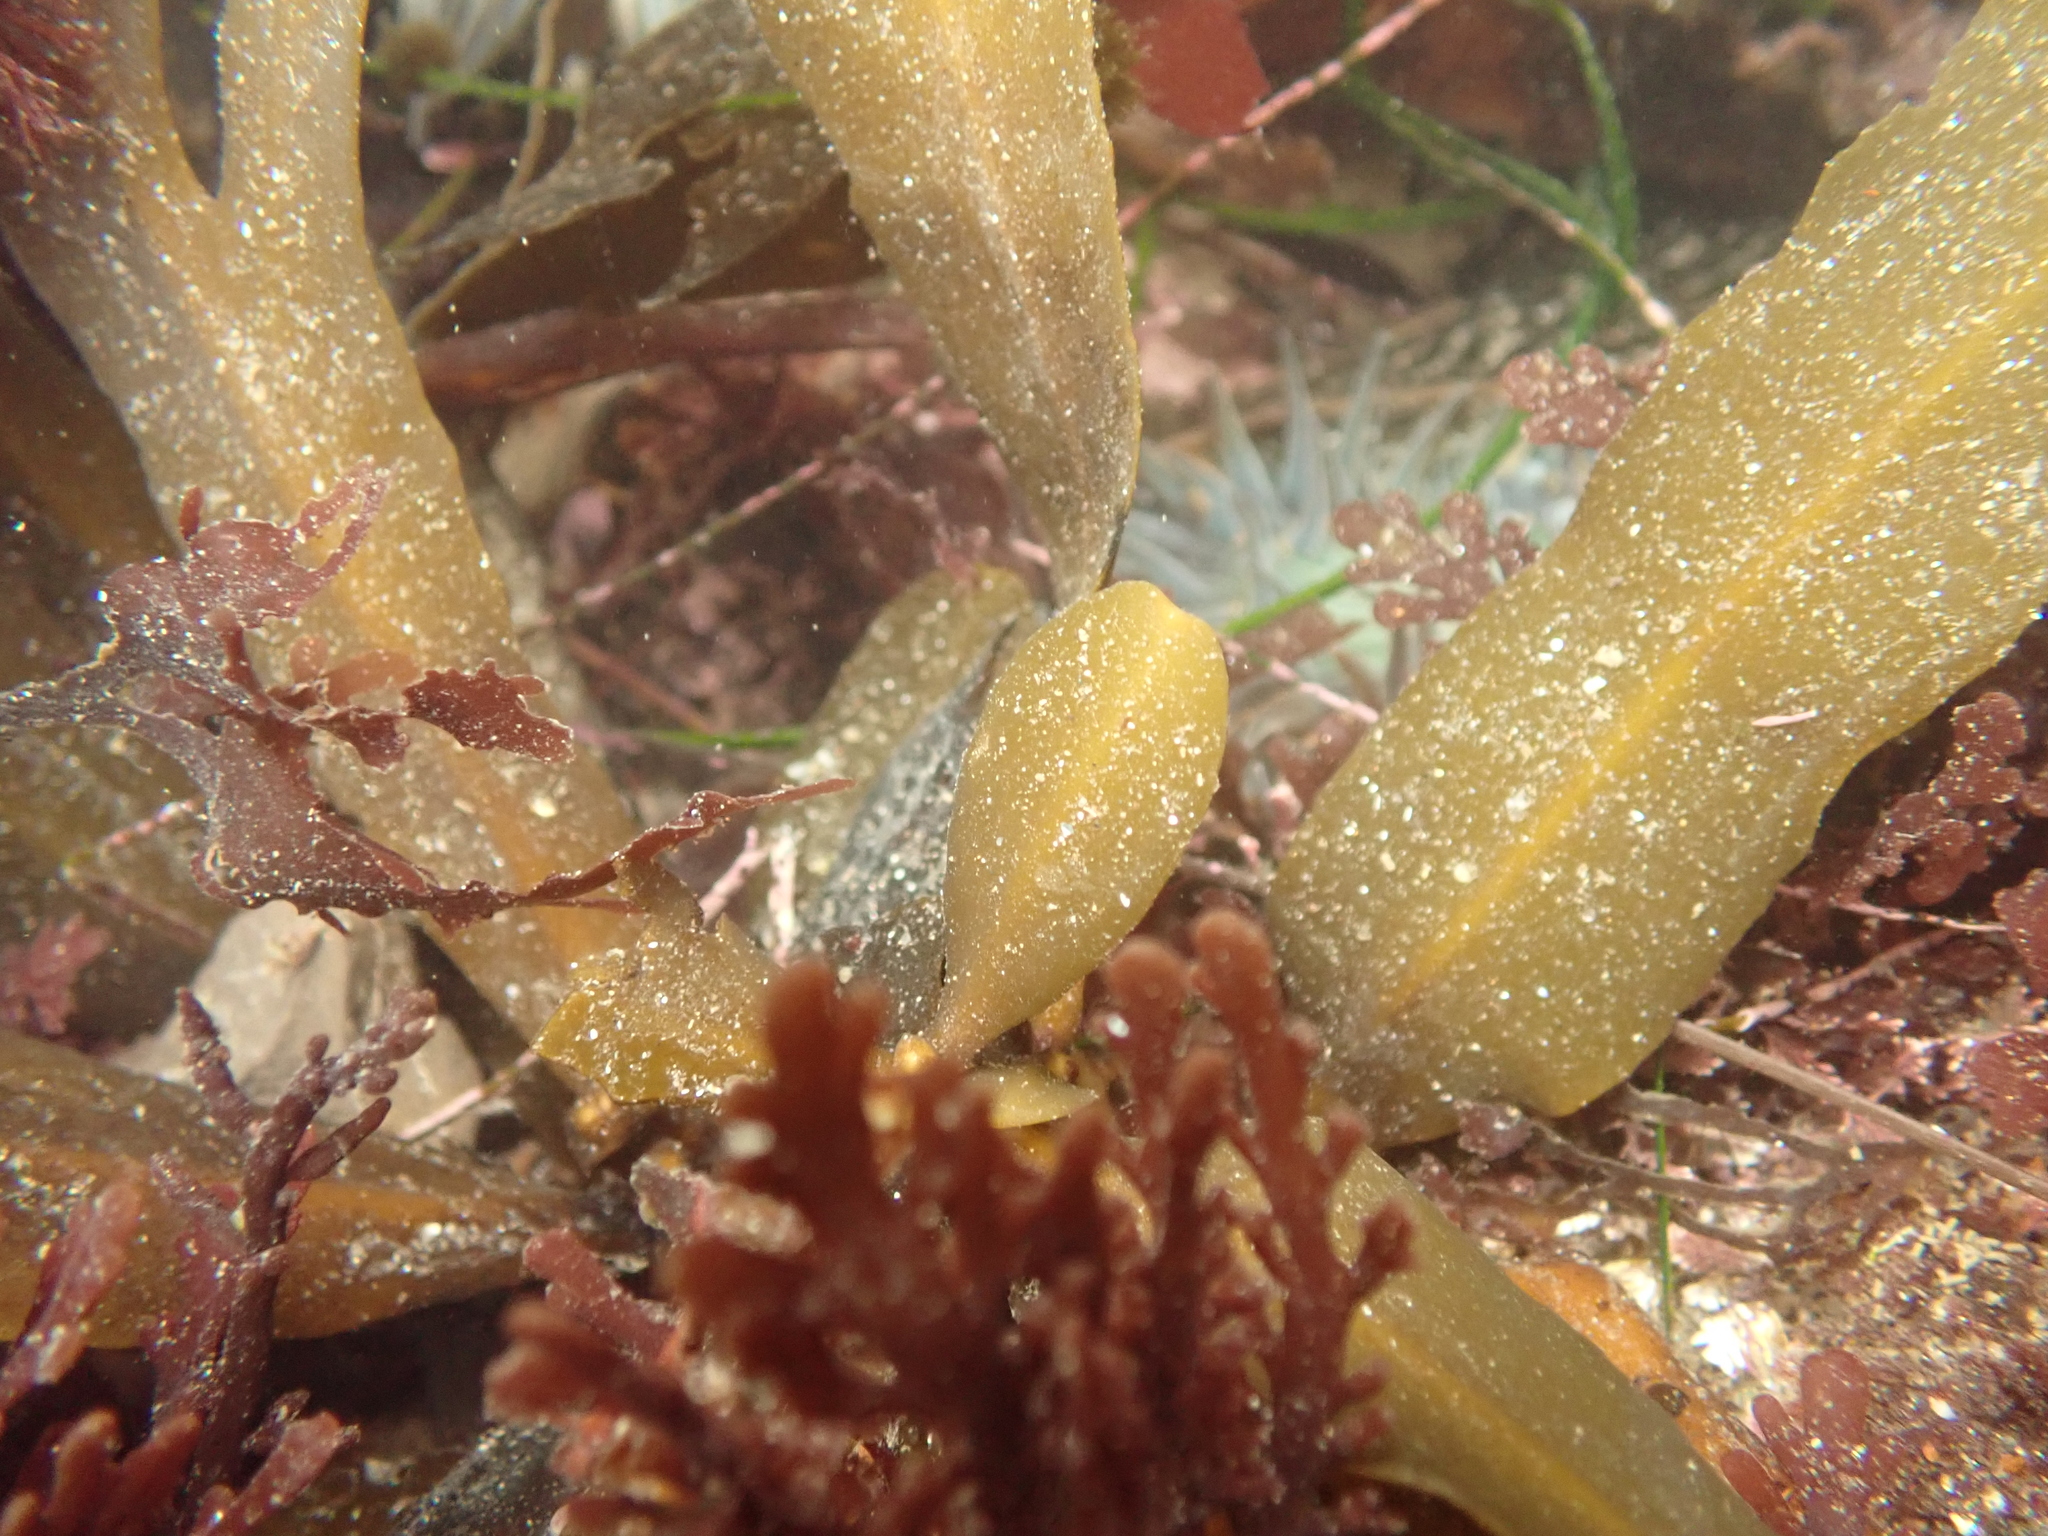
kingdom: Chromista
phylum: Ochrophyta
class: Phaeophyceae
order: Fucales
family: Sargassaceae
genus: Stephanocystis
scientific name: Stephanocystis
